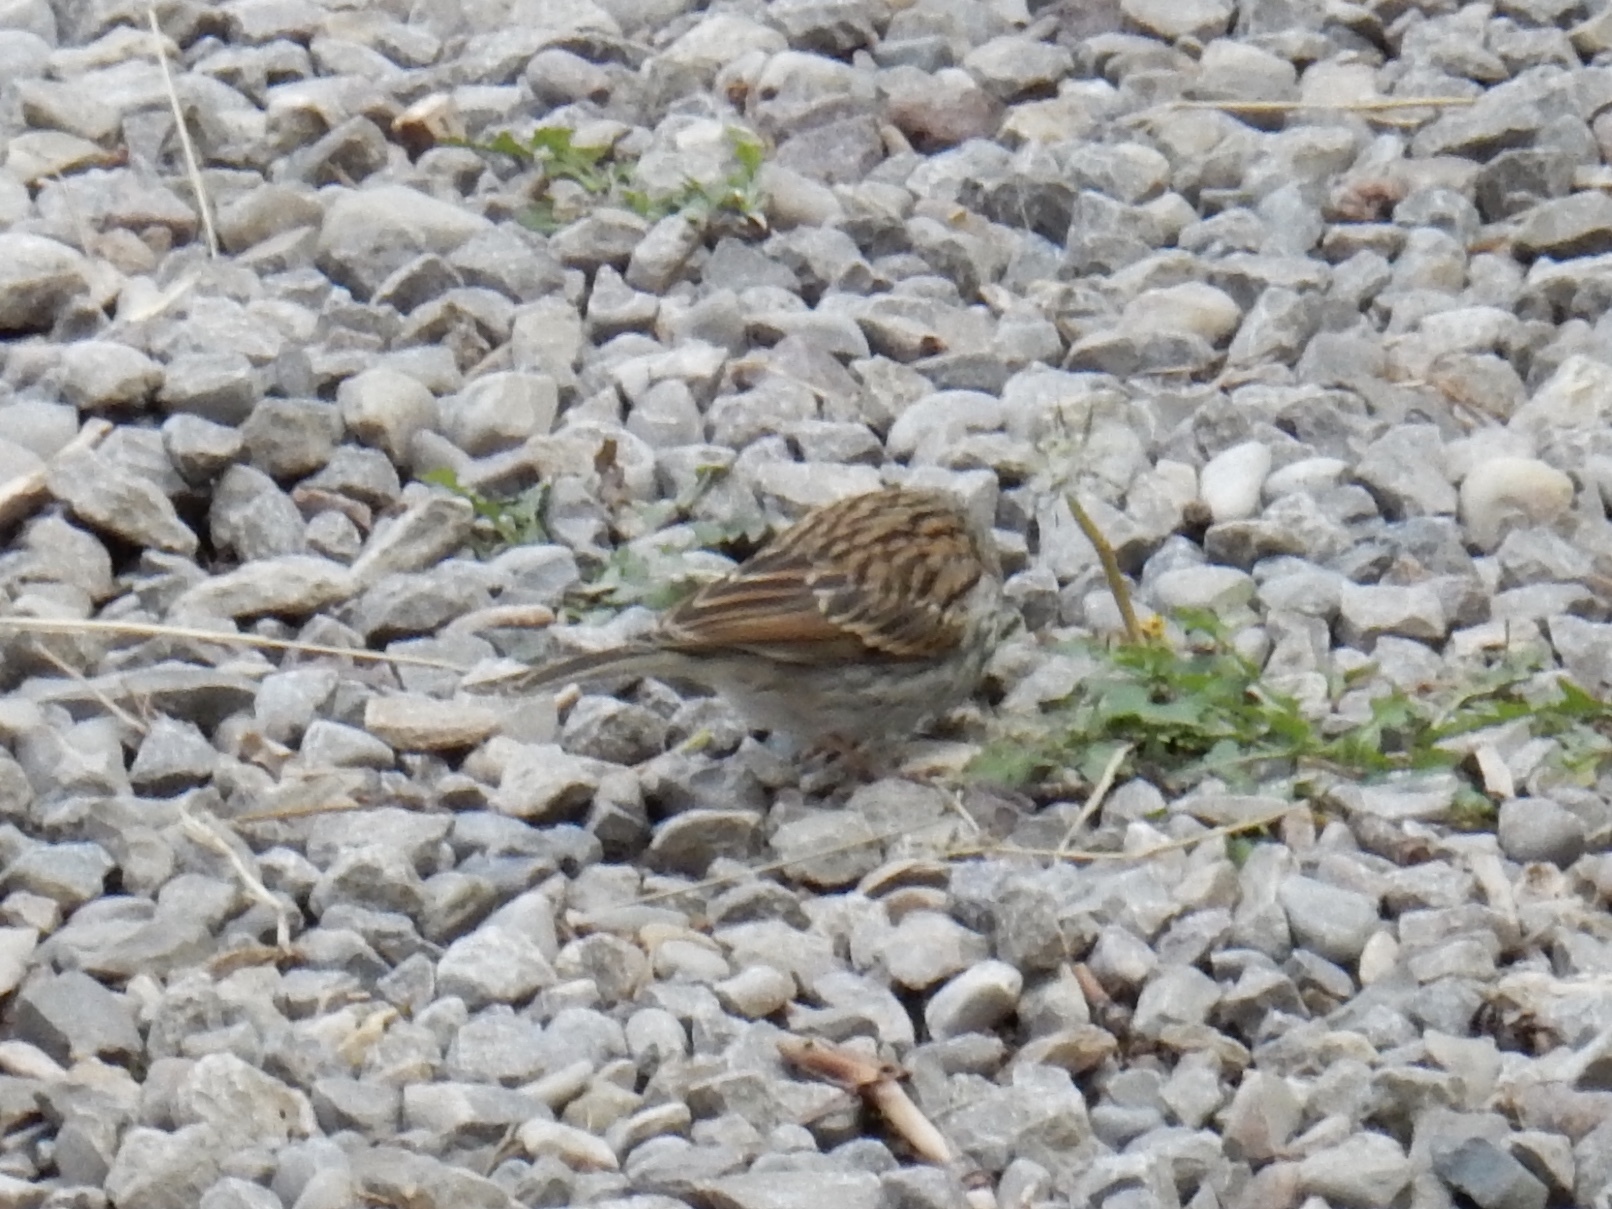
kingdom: Animalia
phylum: Chordata
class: Aves
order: Passeriformes
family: Passerellidae
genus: Spizella
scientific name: Spizella passerina
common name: Chipping sparrow
